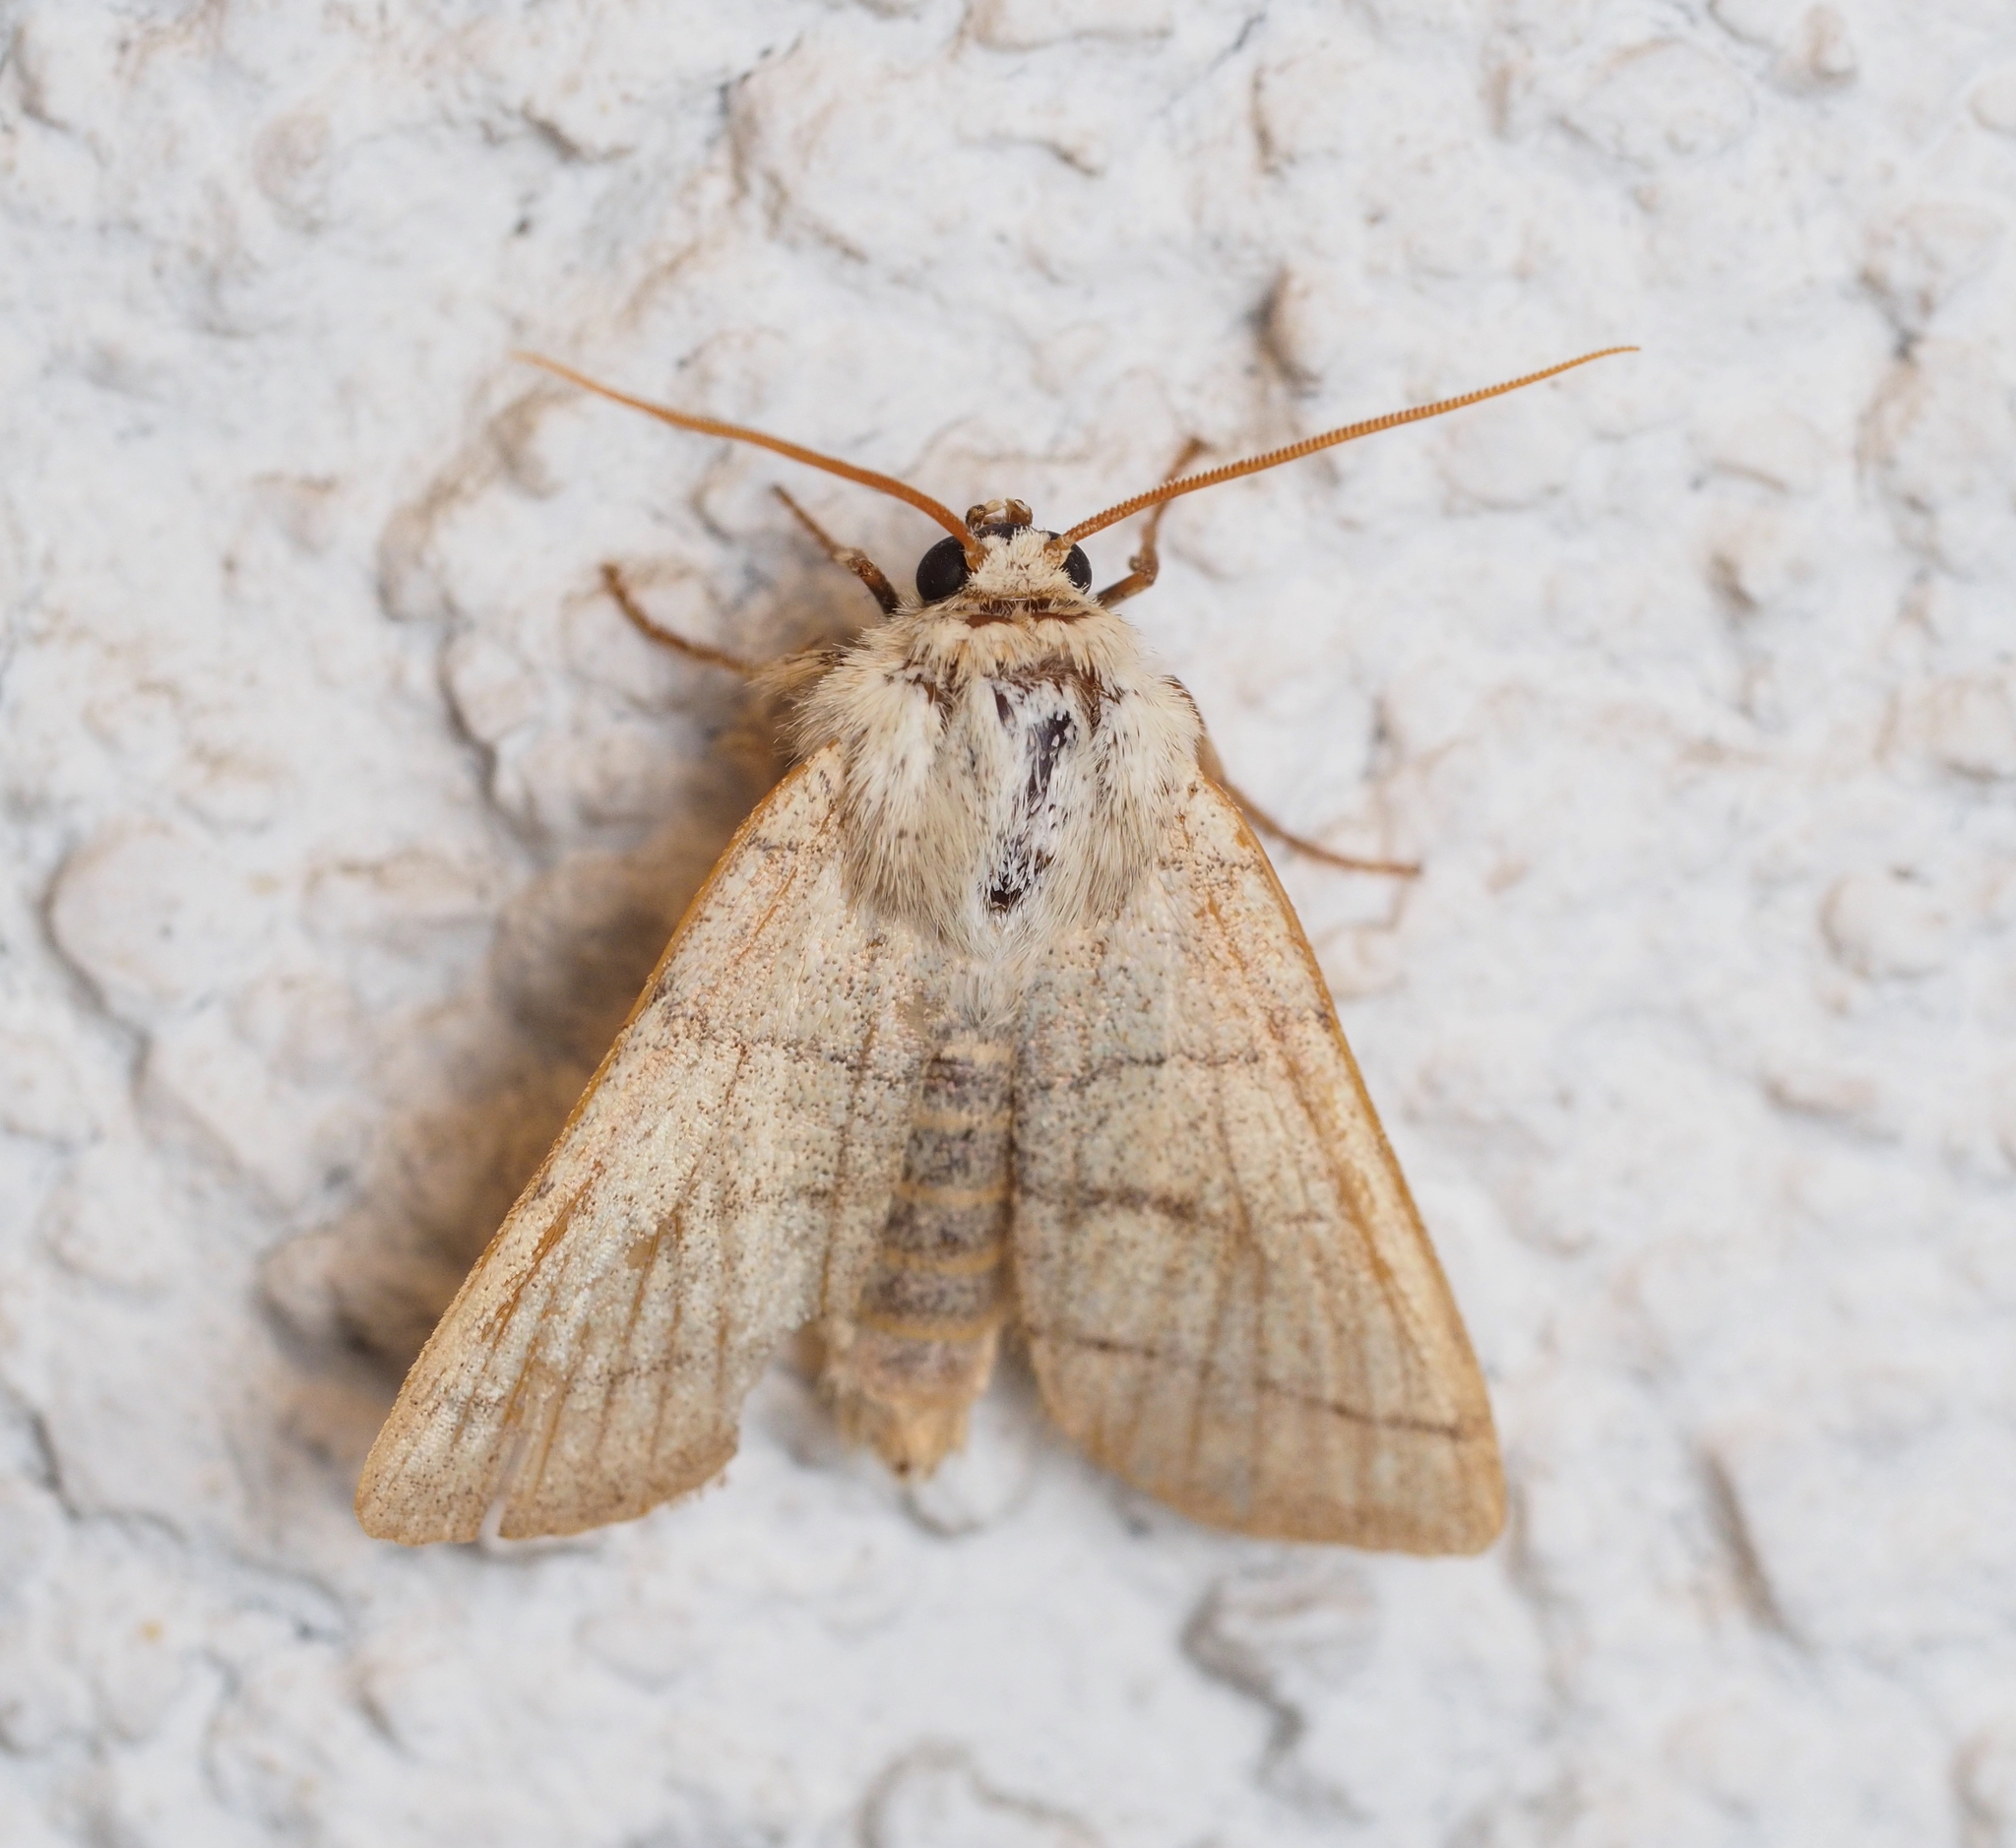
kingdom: Animalia
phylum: Arthropoda
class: Insecta
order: Lepidoptera
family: Noctuidae
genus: Charanyca
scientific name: Charanyca trigrammica
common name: Treble lines
